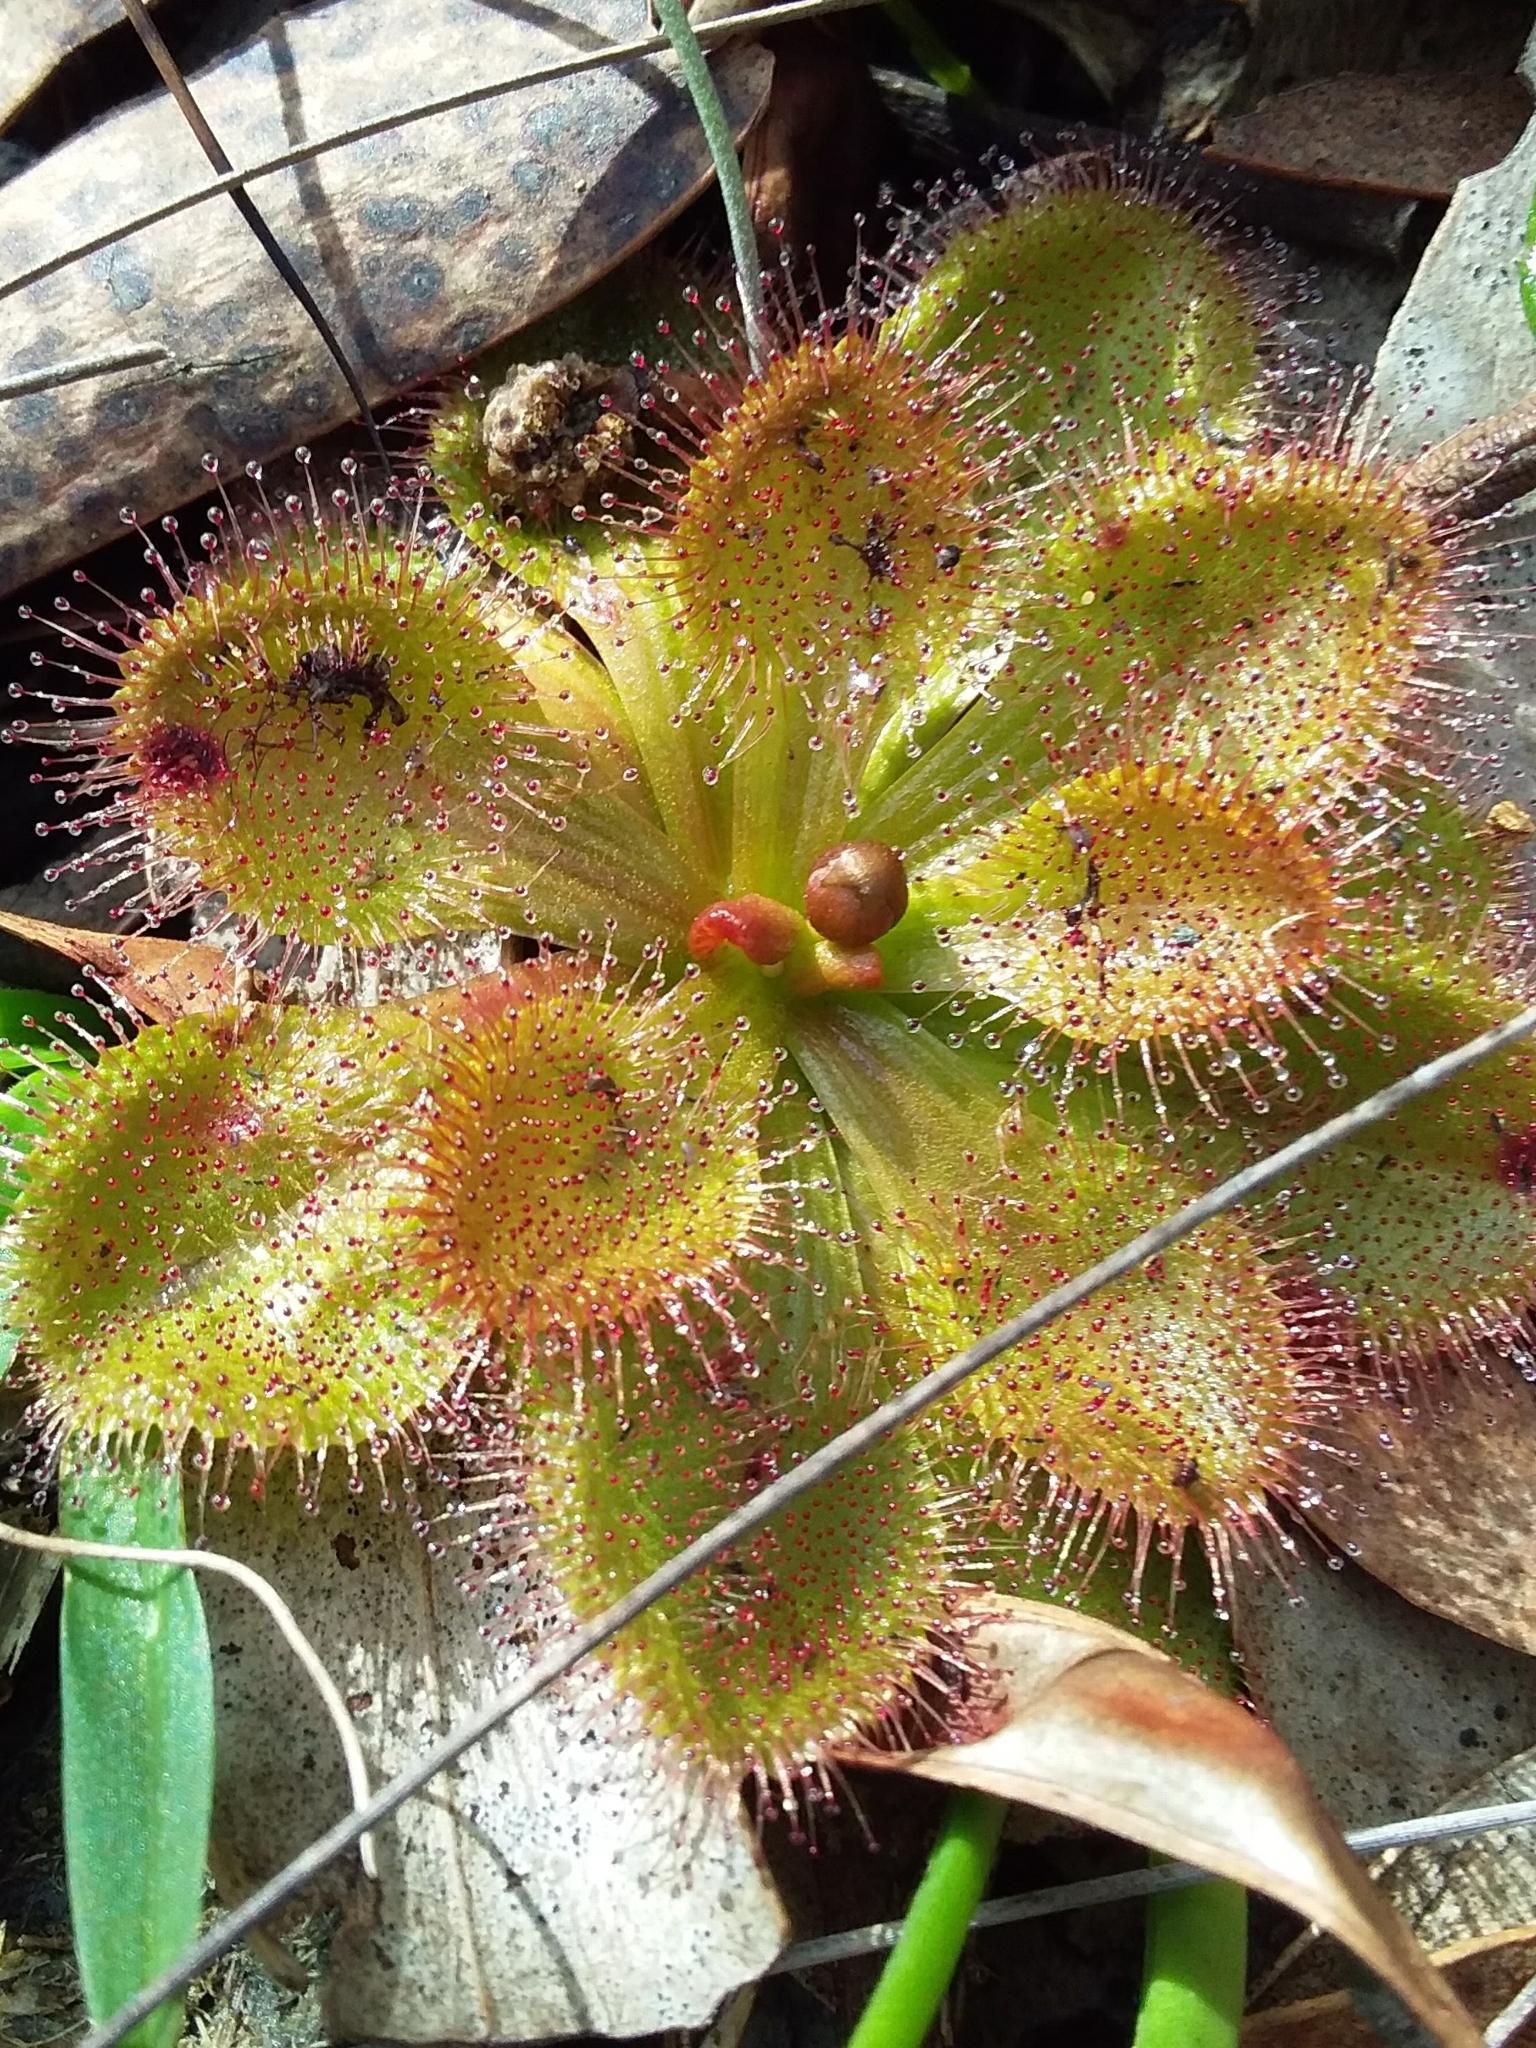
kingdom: Plantae
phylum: Tracheophyta
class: Magnoliopsida
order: Caryophyllales
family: Droseraceae
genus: Drosera
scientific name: Drosera whittakeri
